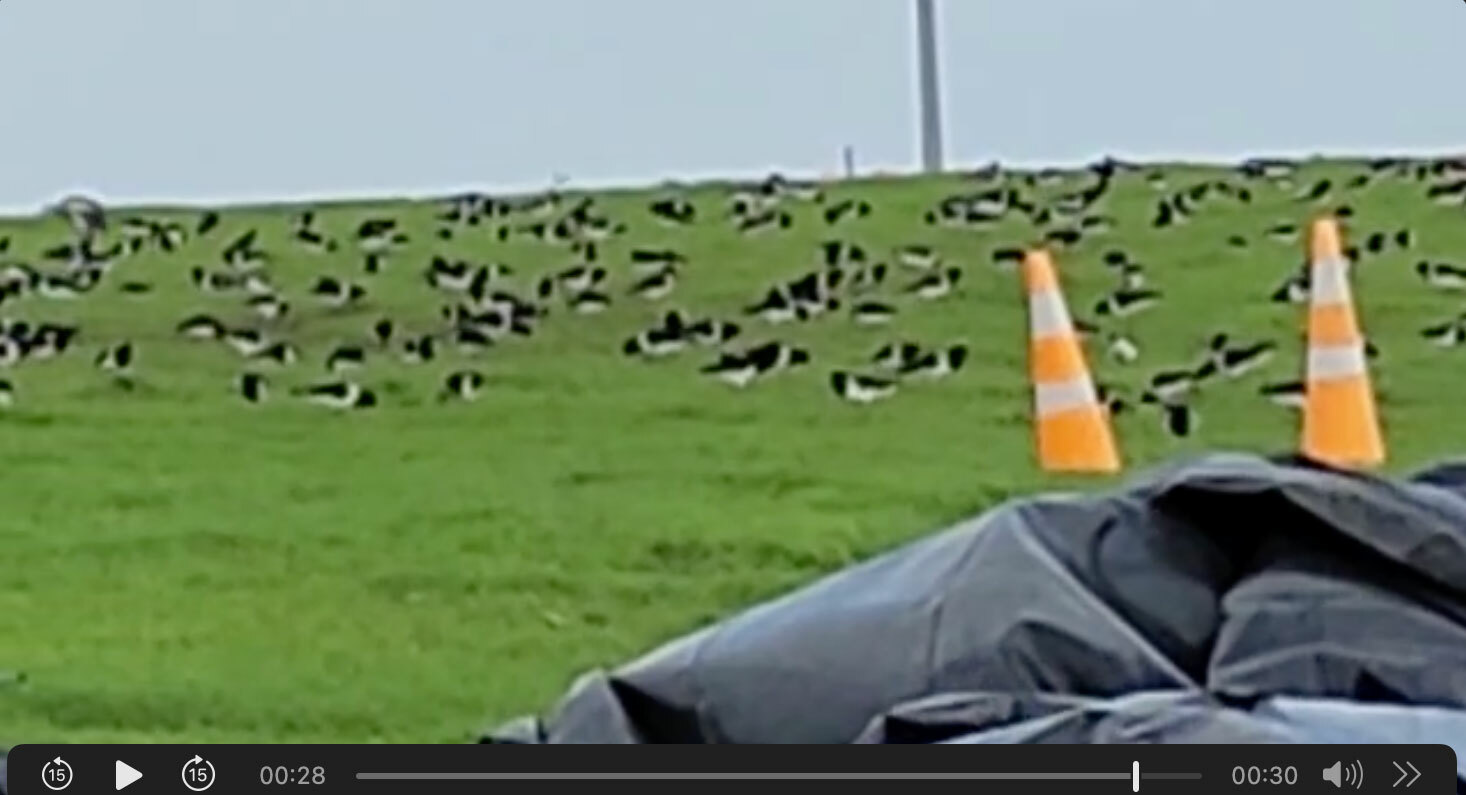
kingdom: Animalia
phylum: Chordata
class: Aves
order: Charadriiformes
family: Haematopodidae
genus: Haematopus
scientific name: Haematopus finschi
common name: South island oystercatcher
